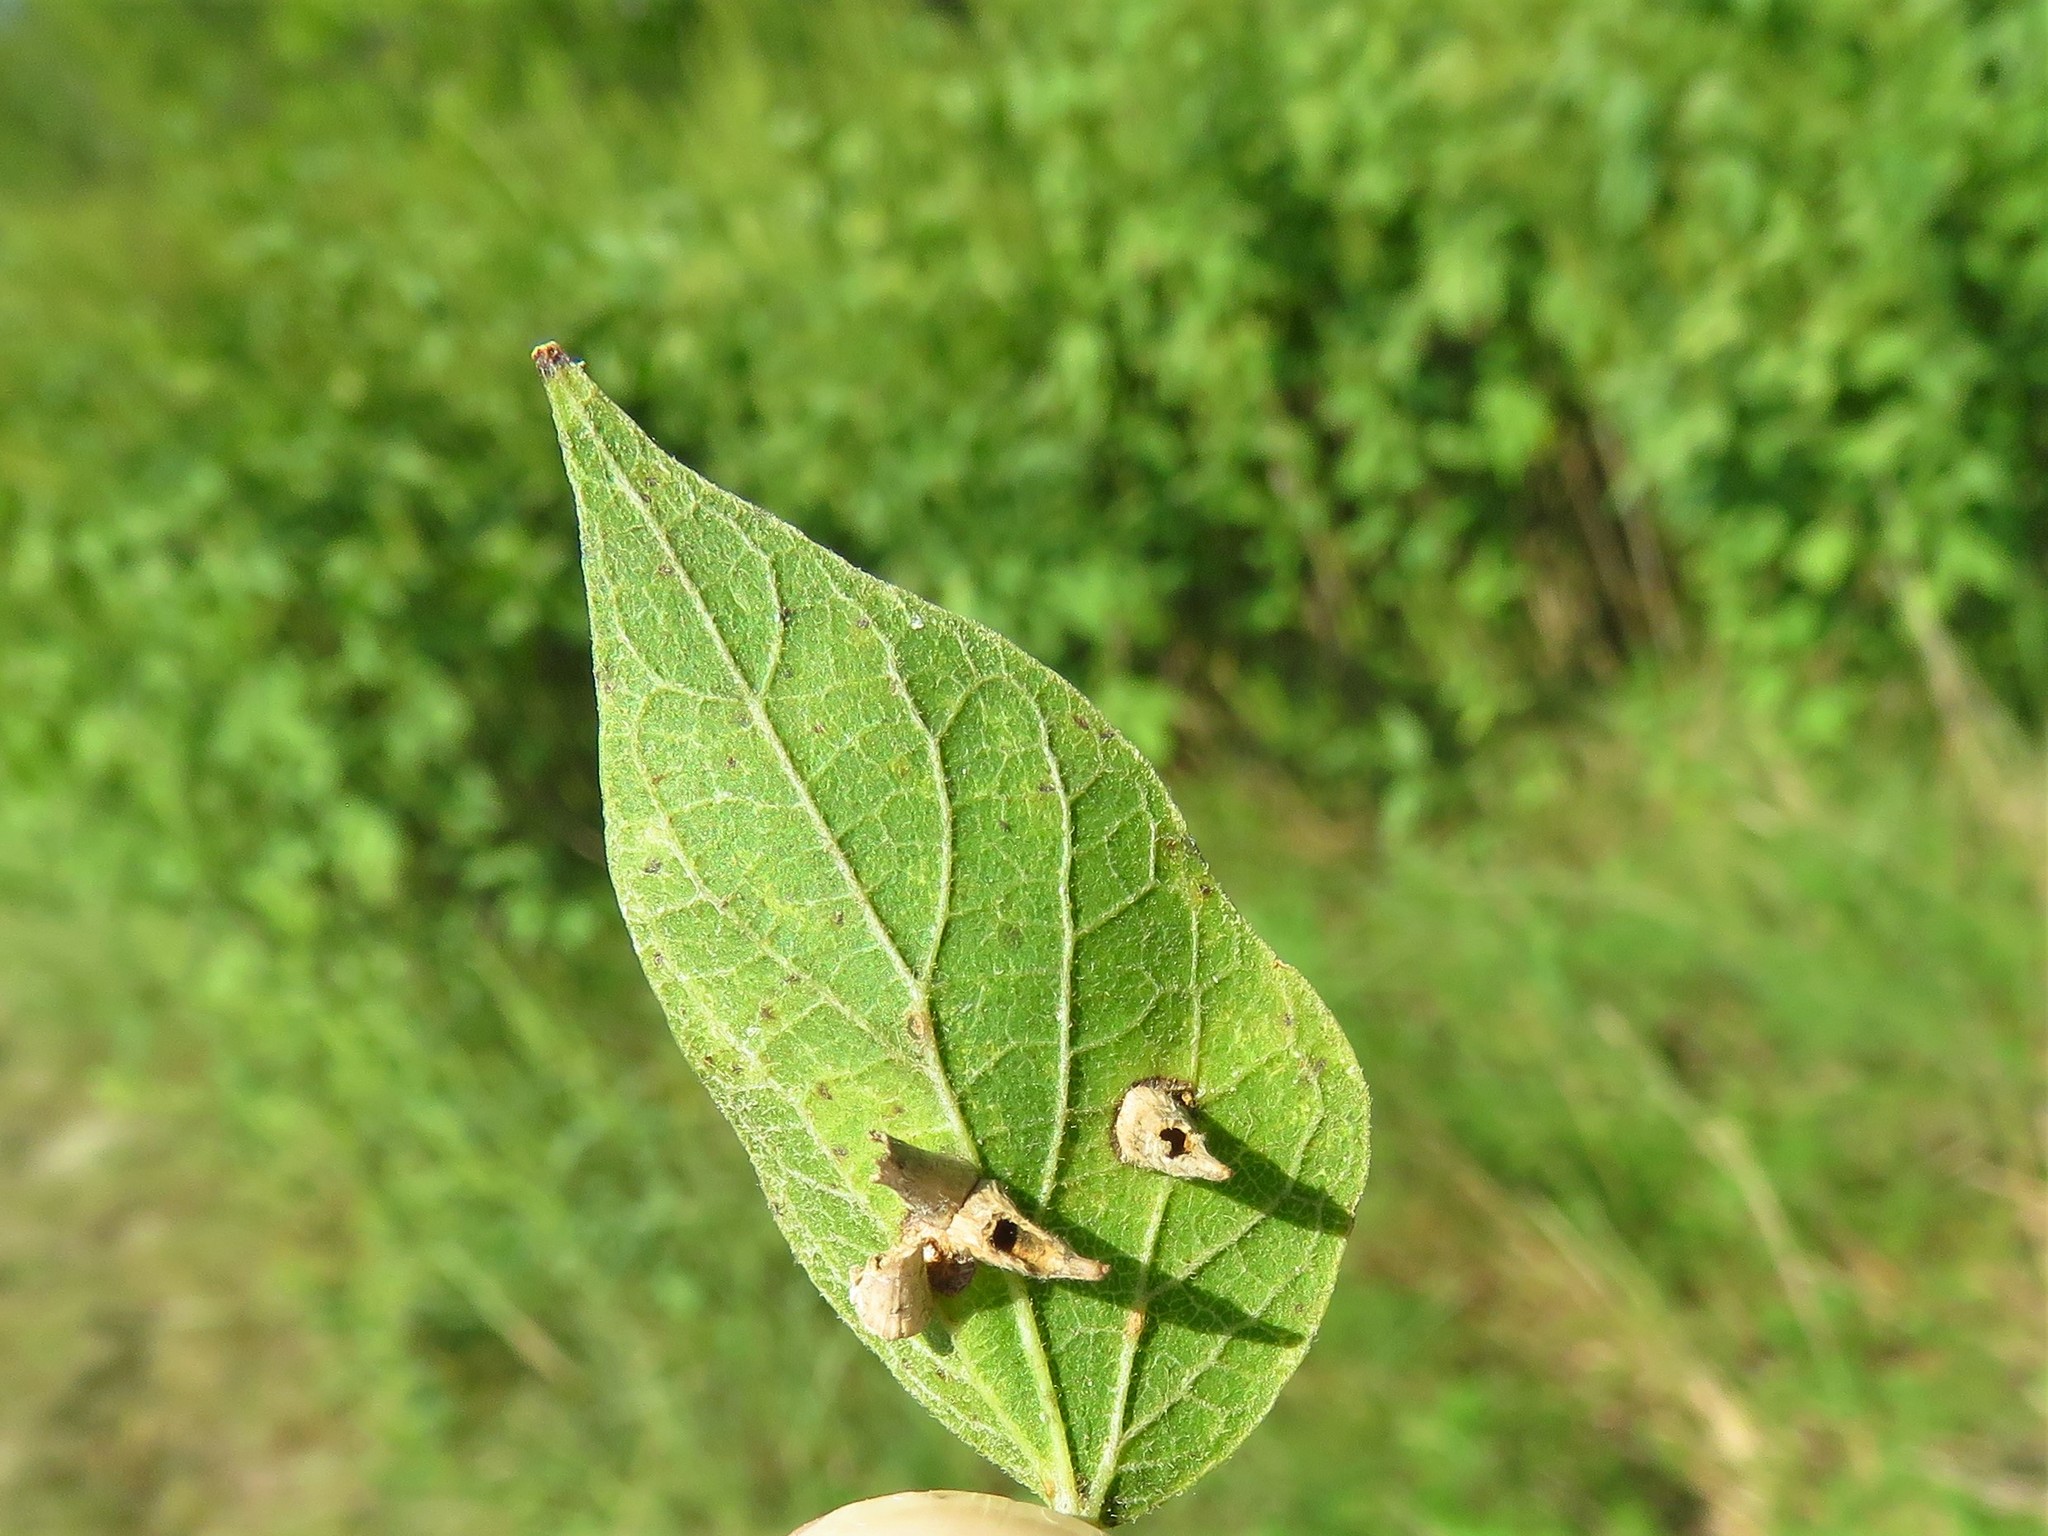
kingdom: Animalia
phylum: Arthropoda
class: Insecta
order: Diptera
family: Cecidomyiidae
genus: Celticecis
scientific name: Celticecis subulata
